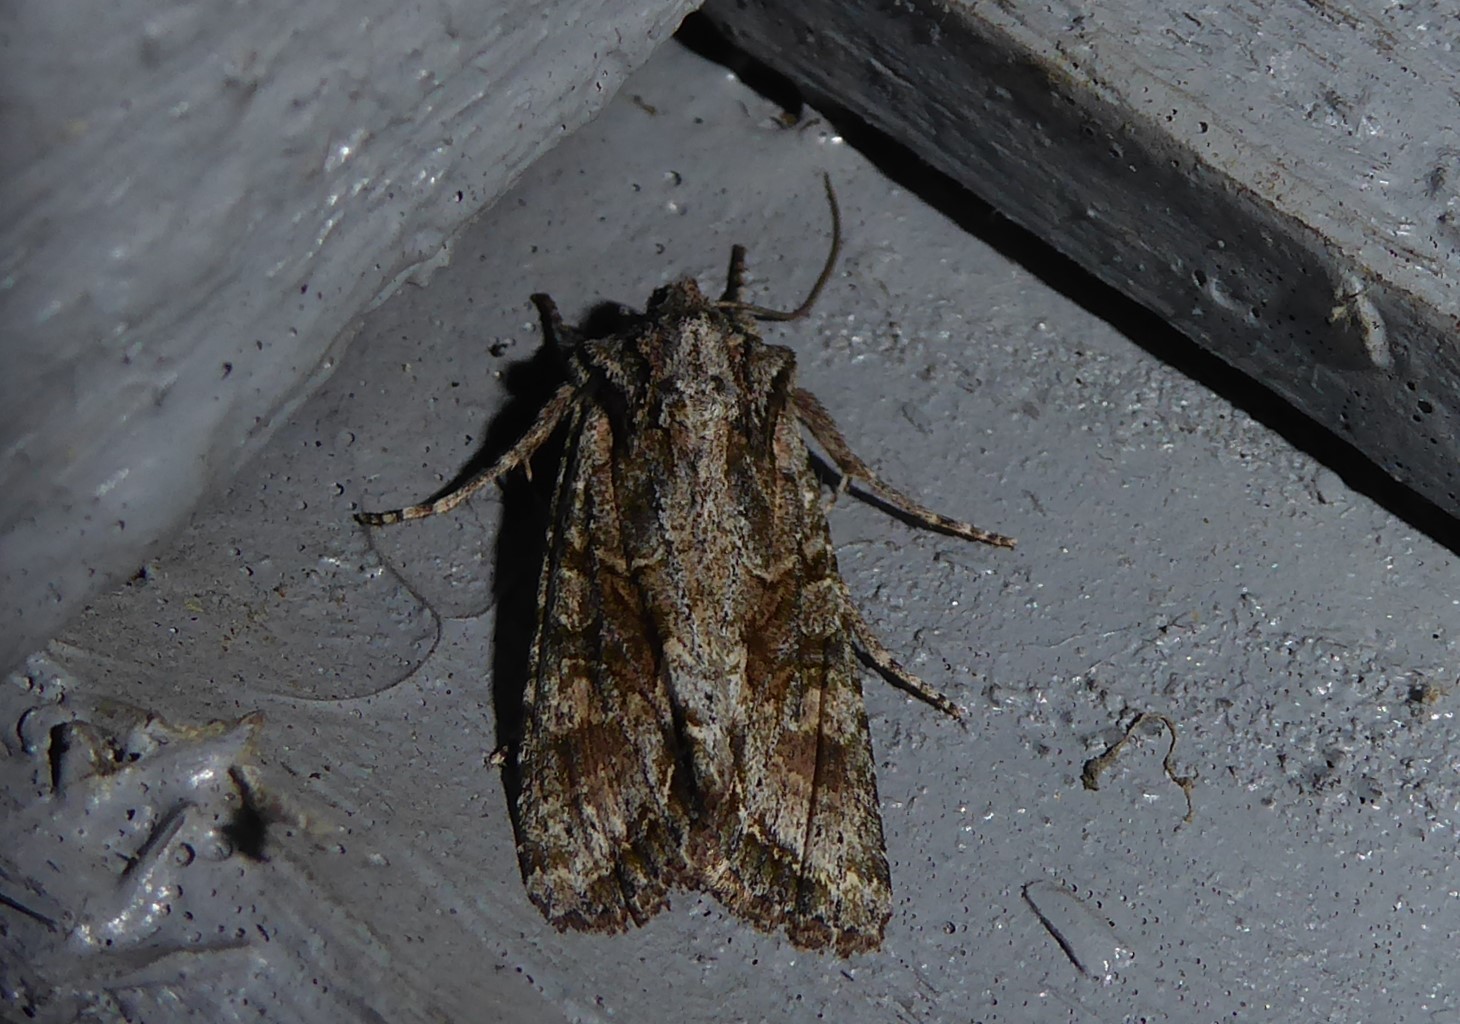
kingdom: Animalia
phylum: Arthropoda
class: Insecta
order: Lepidoptera
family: Noctuidae
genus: Ichneutica
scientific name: Ichneutica mutans
